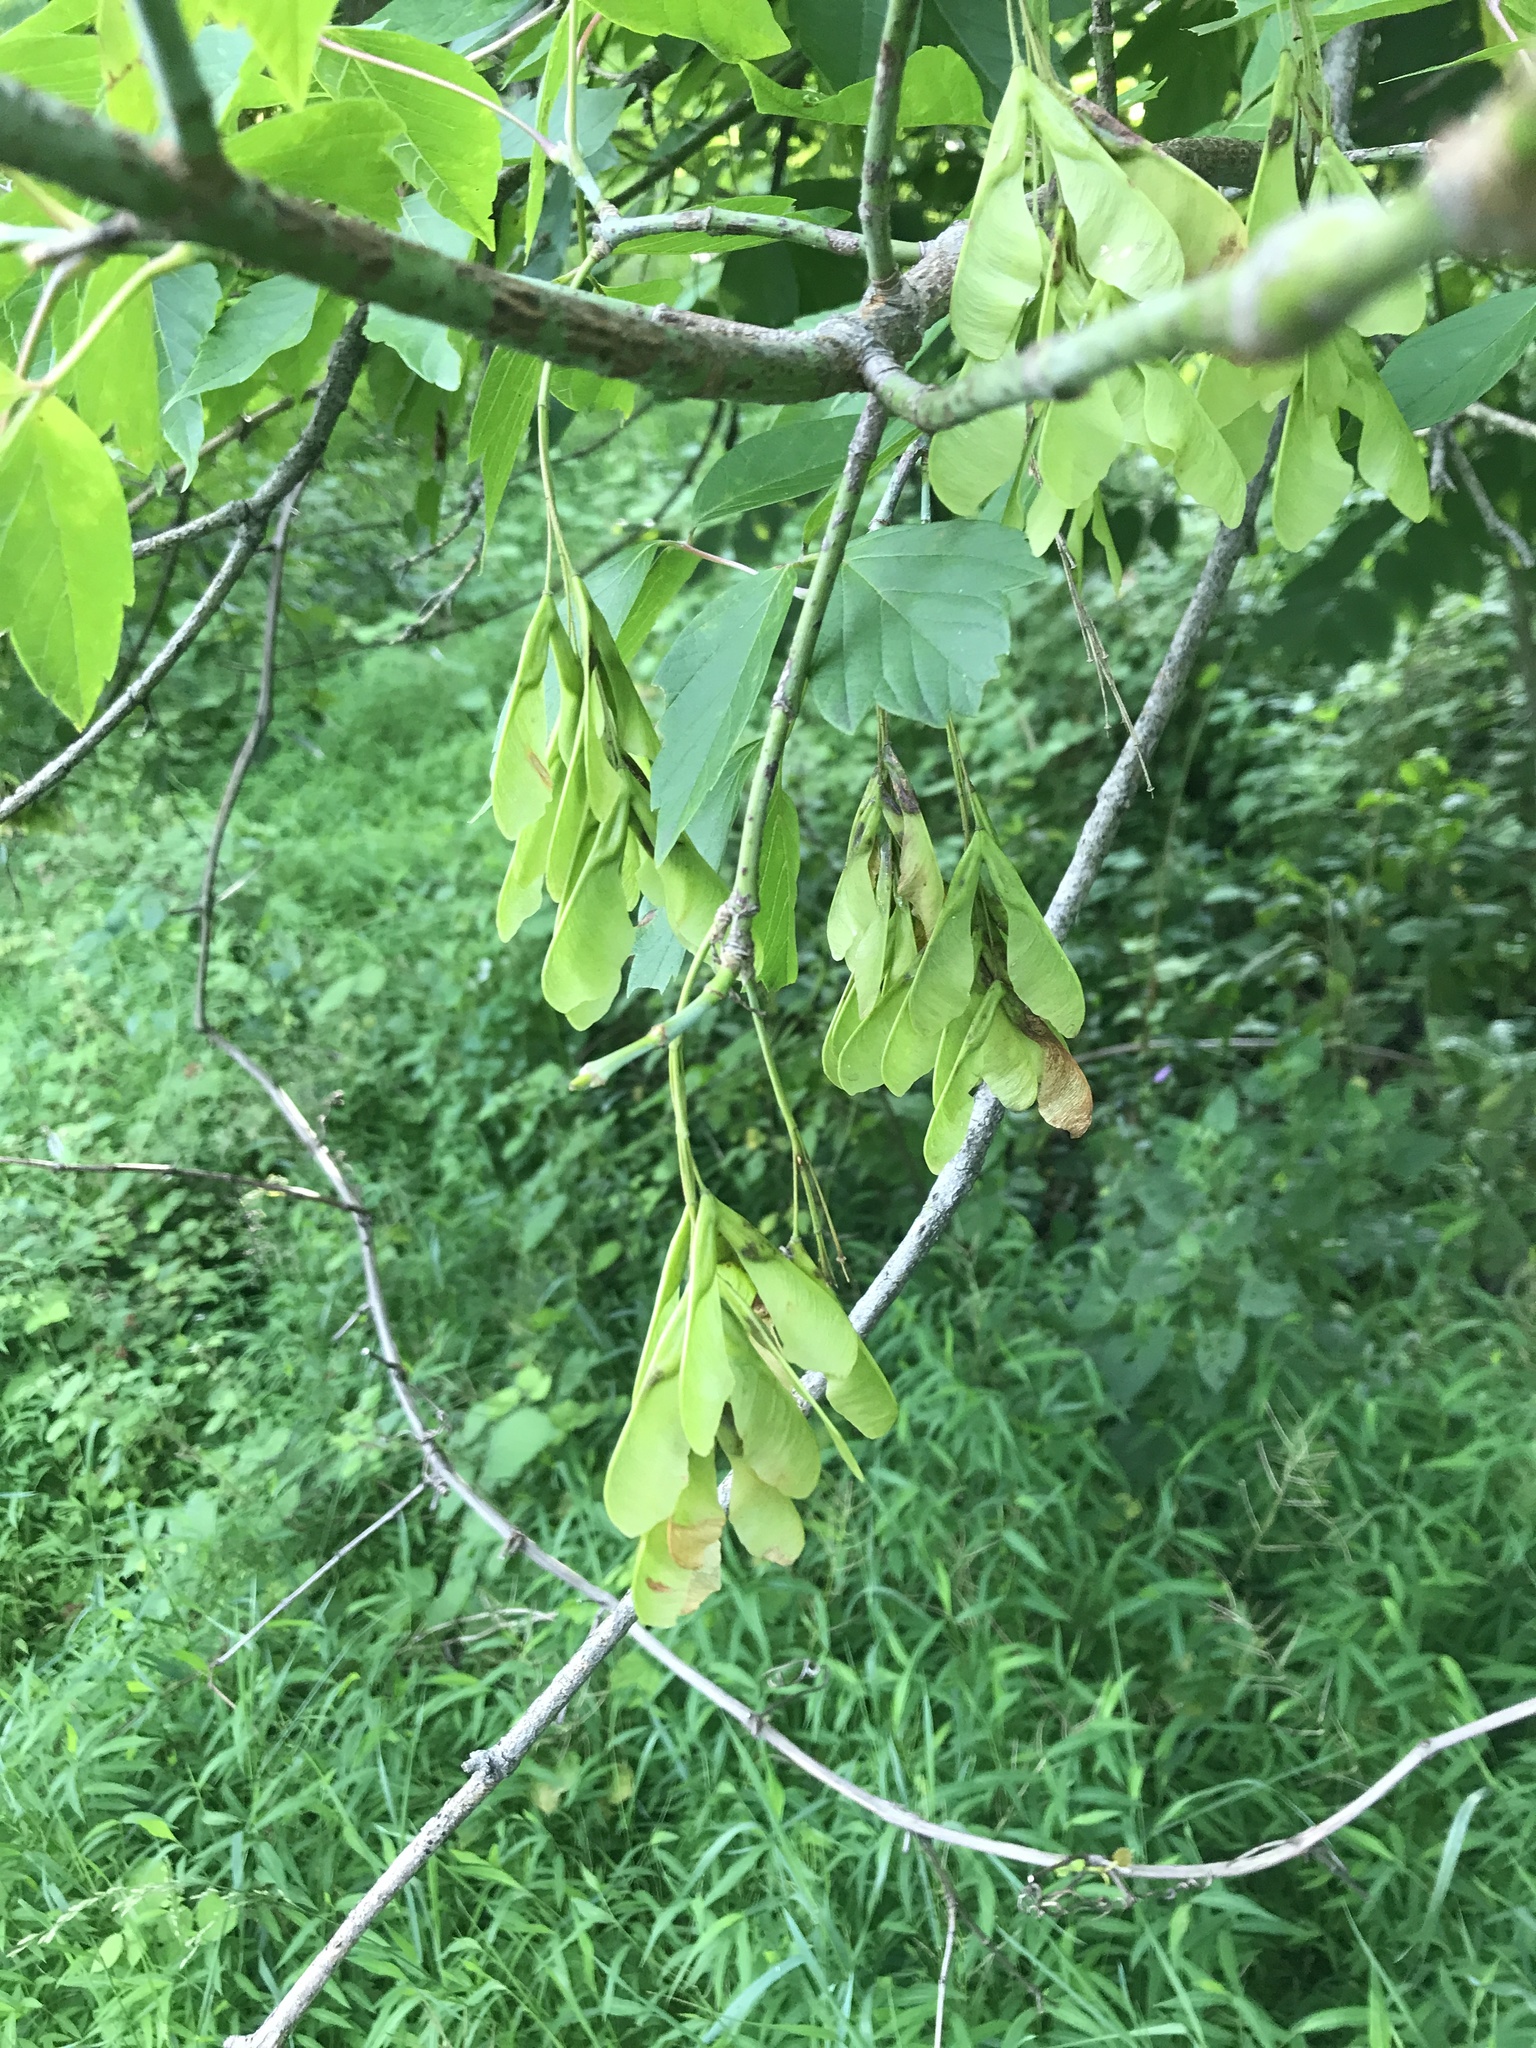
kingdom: Plantae
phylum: Tracheophyta
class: Magnoliopsida
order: Sapindales
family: Sapindaceae
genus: Acer
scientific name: Acer negundo
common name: Ashleaf maple
